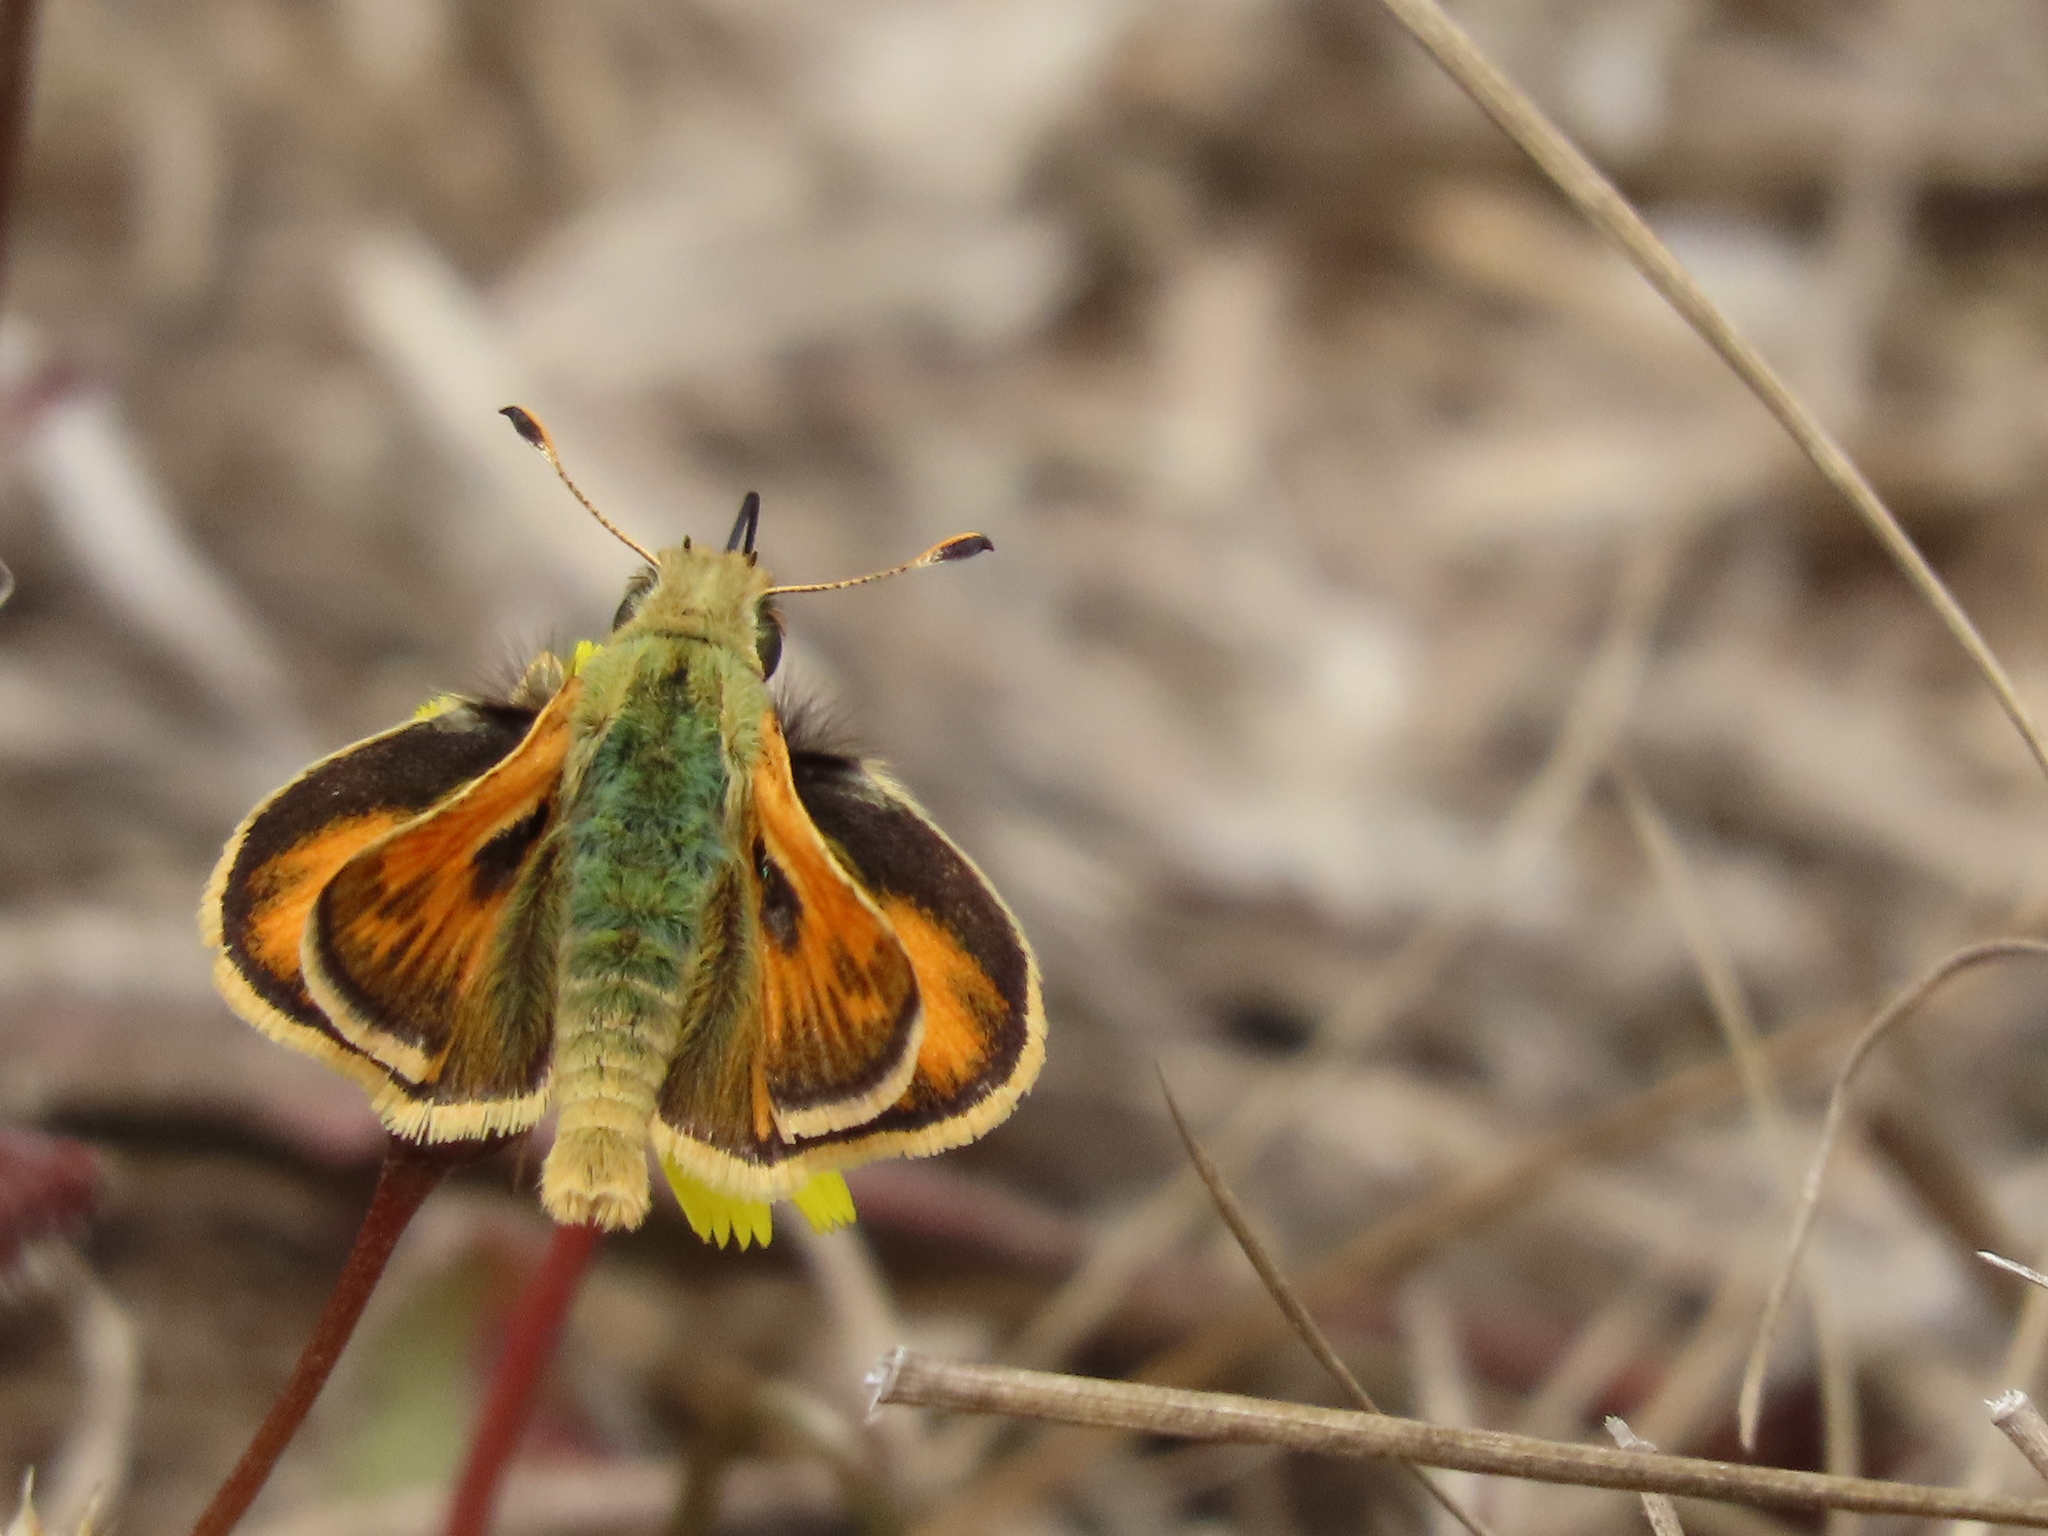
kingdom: Animalia
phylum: Arthropoda
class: Insecta
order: Lepidoptera
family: Hesperiidae
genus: Polites
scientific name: Polites sabuleti
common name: Sandhill skipper
